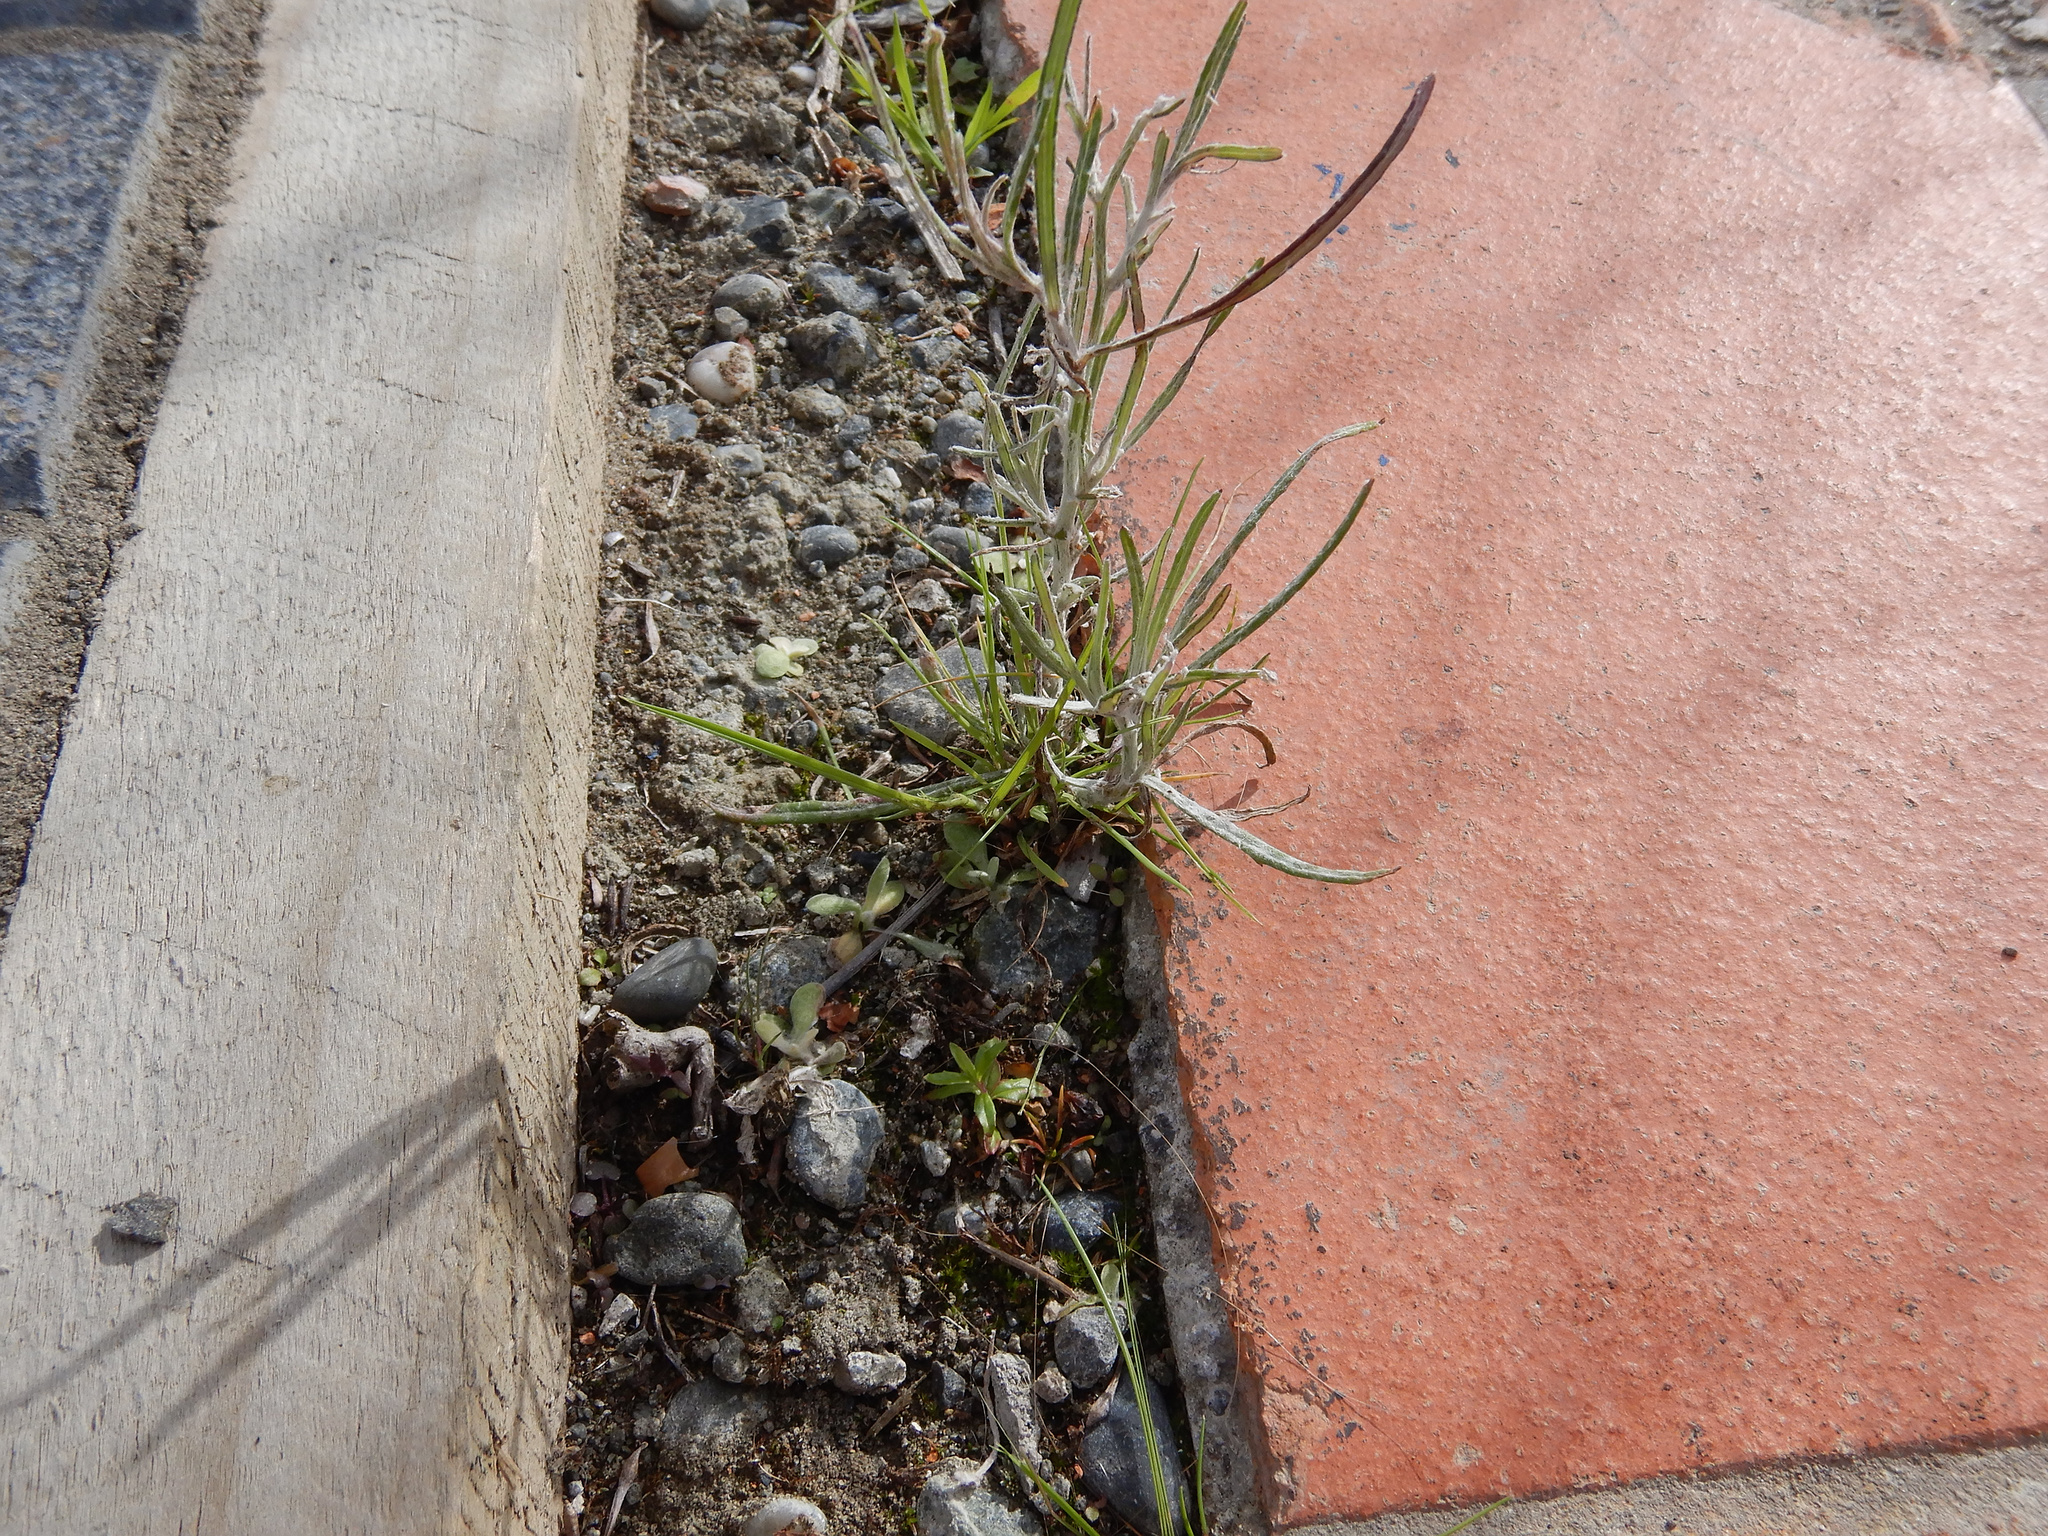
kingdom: Plantae
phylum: Tracheophyta
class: Magnoliopsida
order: Asterales
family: Asteraceae
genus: Senecio
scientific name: Senecio quadridentatus
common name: Cotton fireweed
